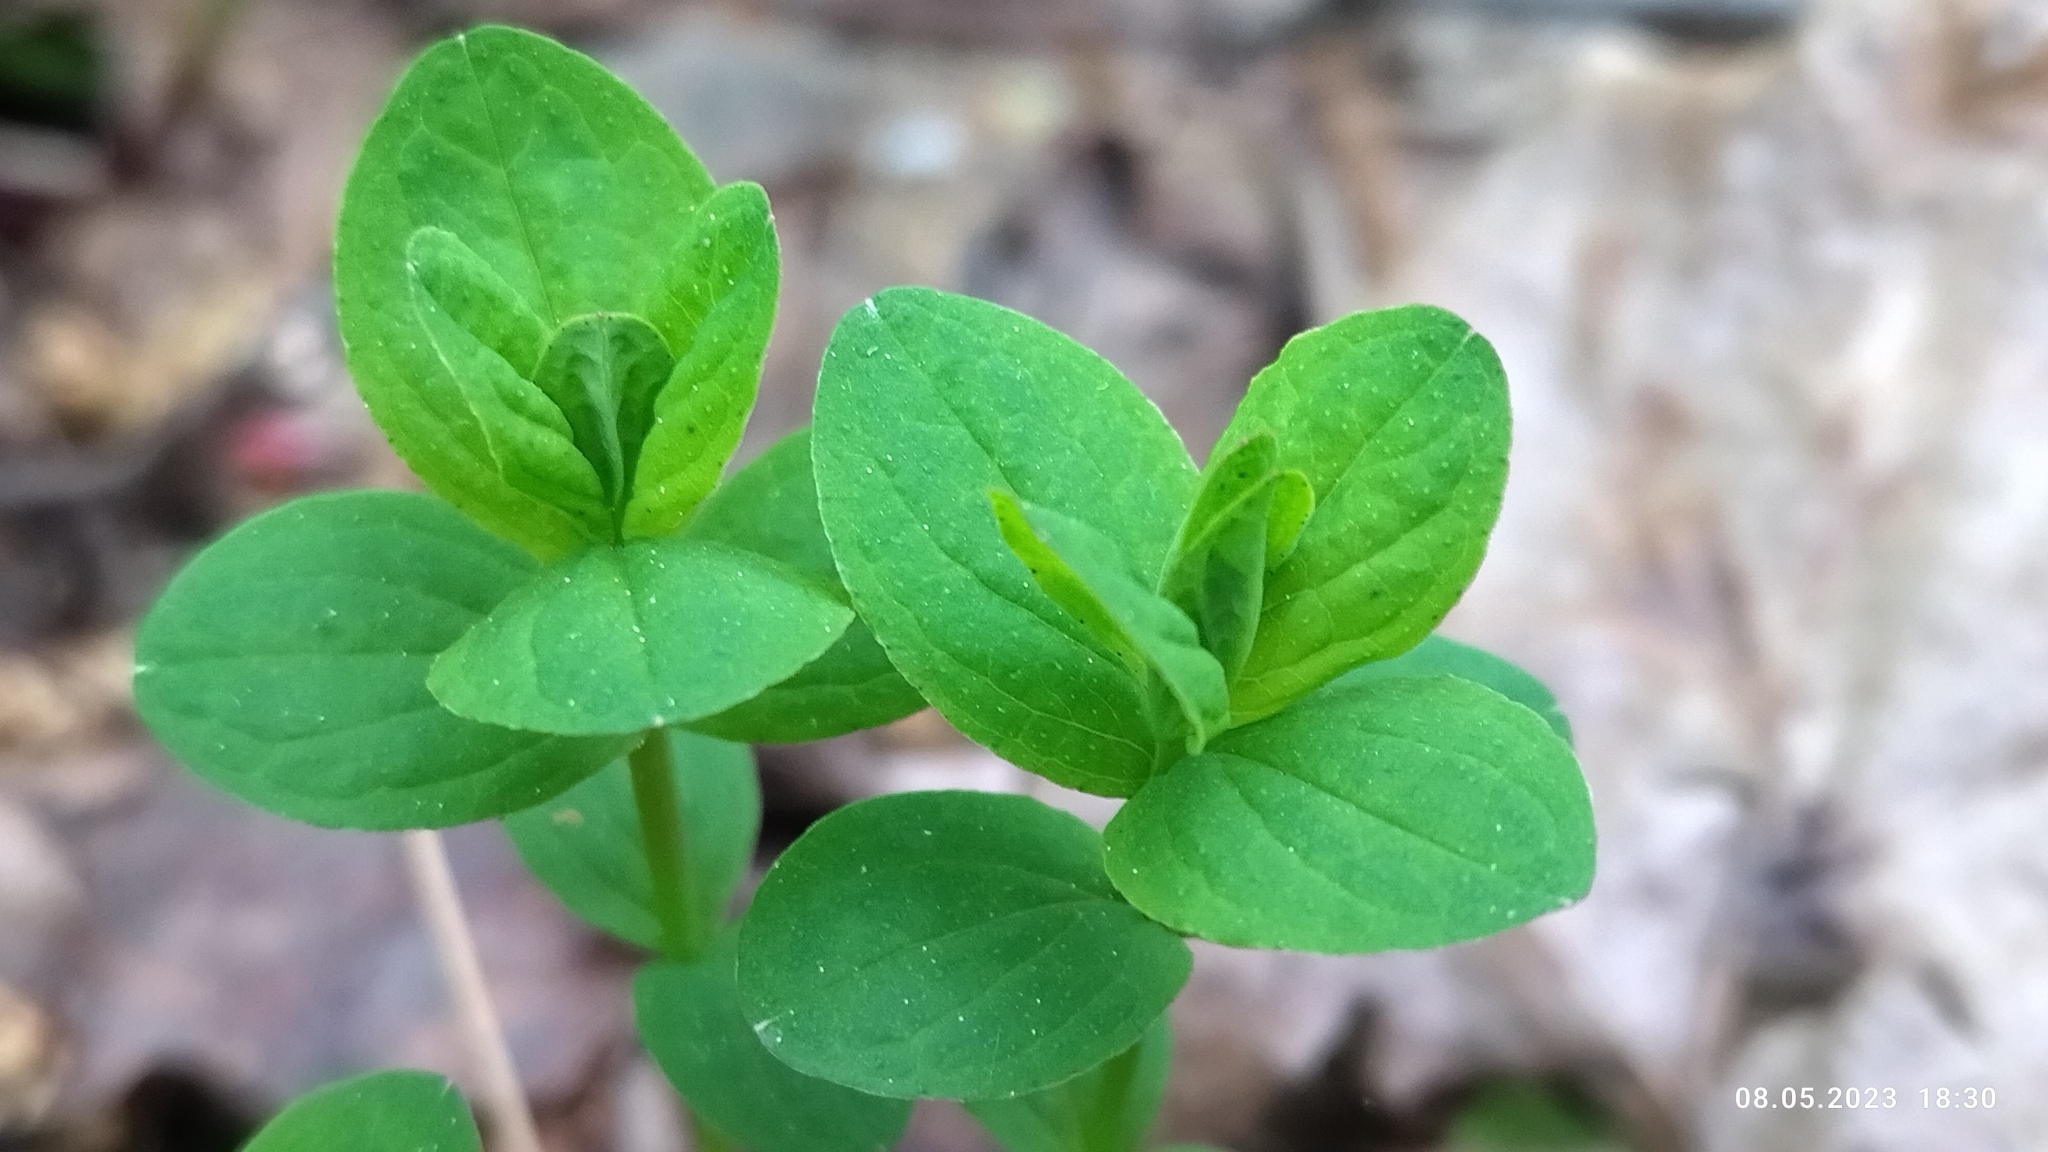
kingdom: Plantae
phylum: Tracheophyta
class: Magnoliopsida
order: Malpighiales
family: Hypericaceae
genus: Hypericum
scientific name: Hypericum maculatum
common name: Imperforate st. john's-wort
